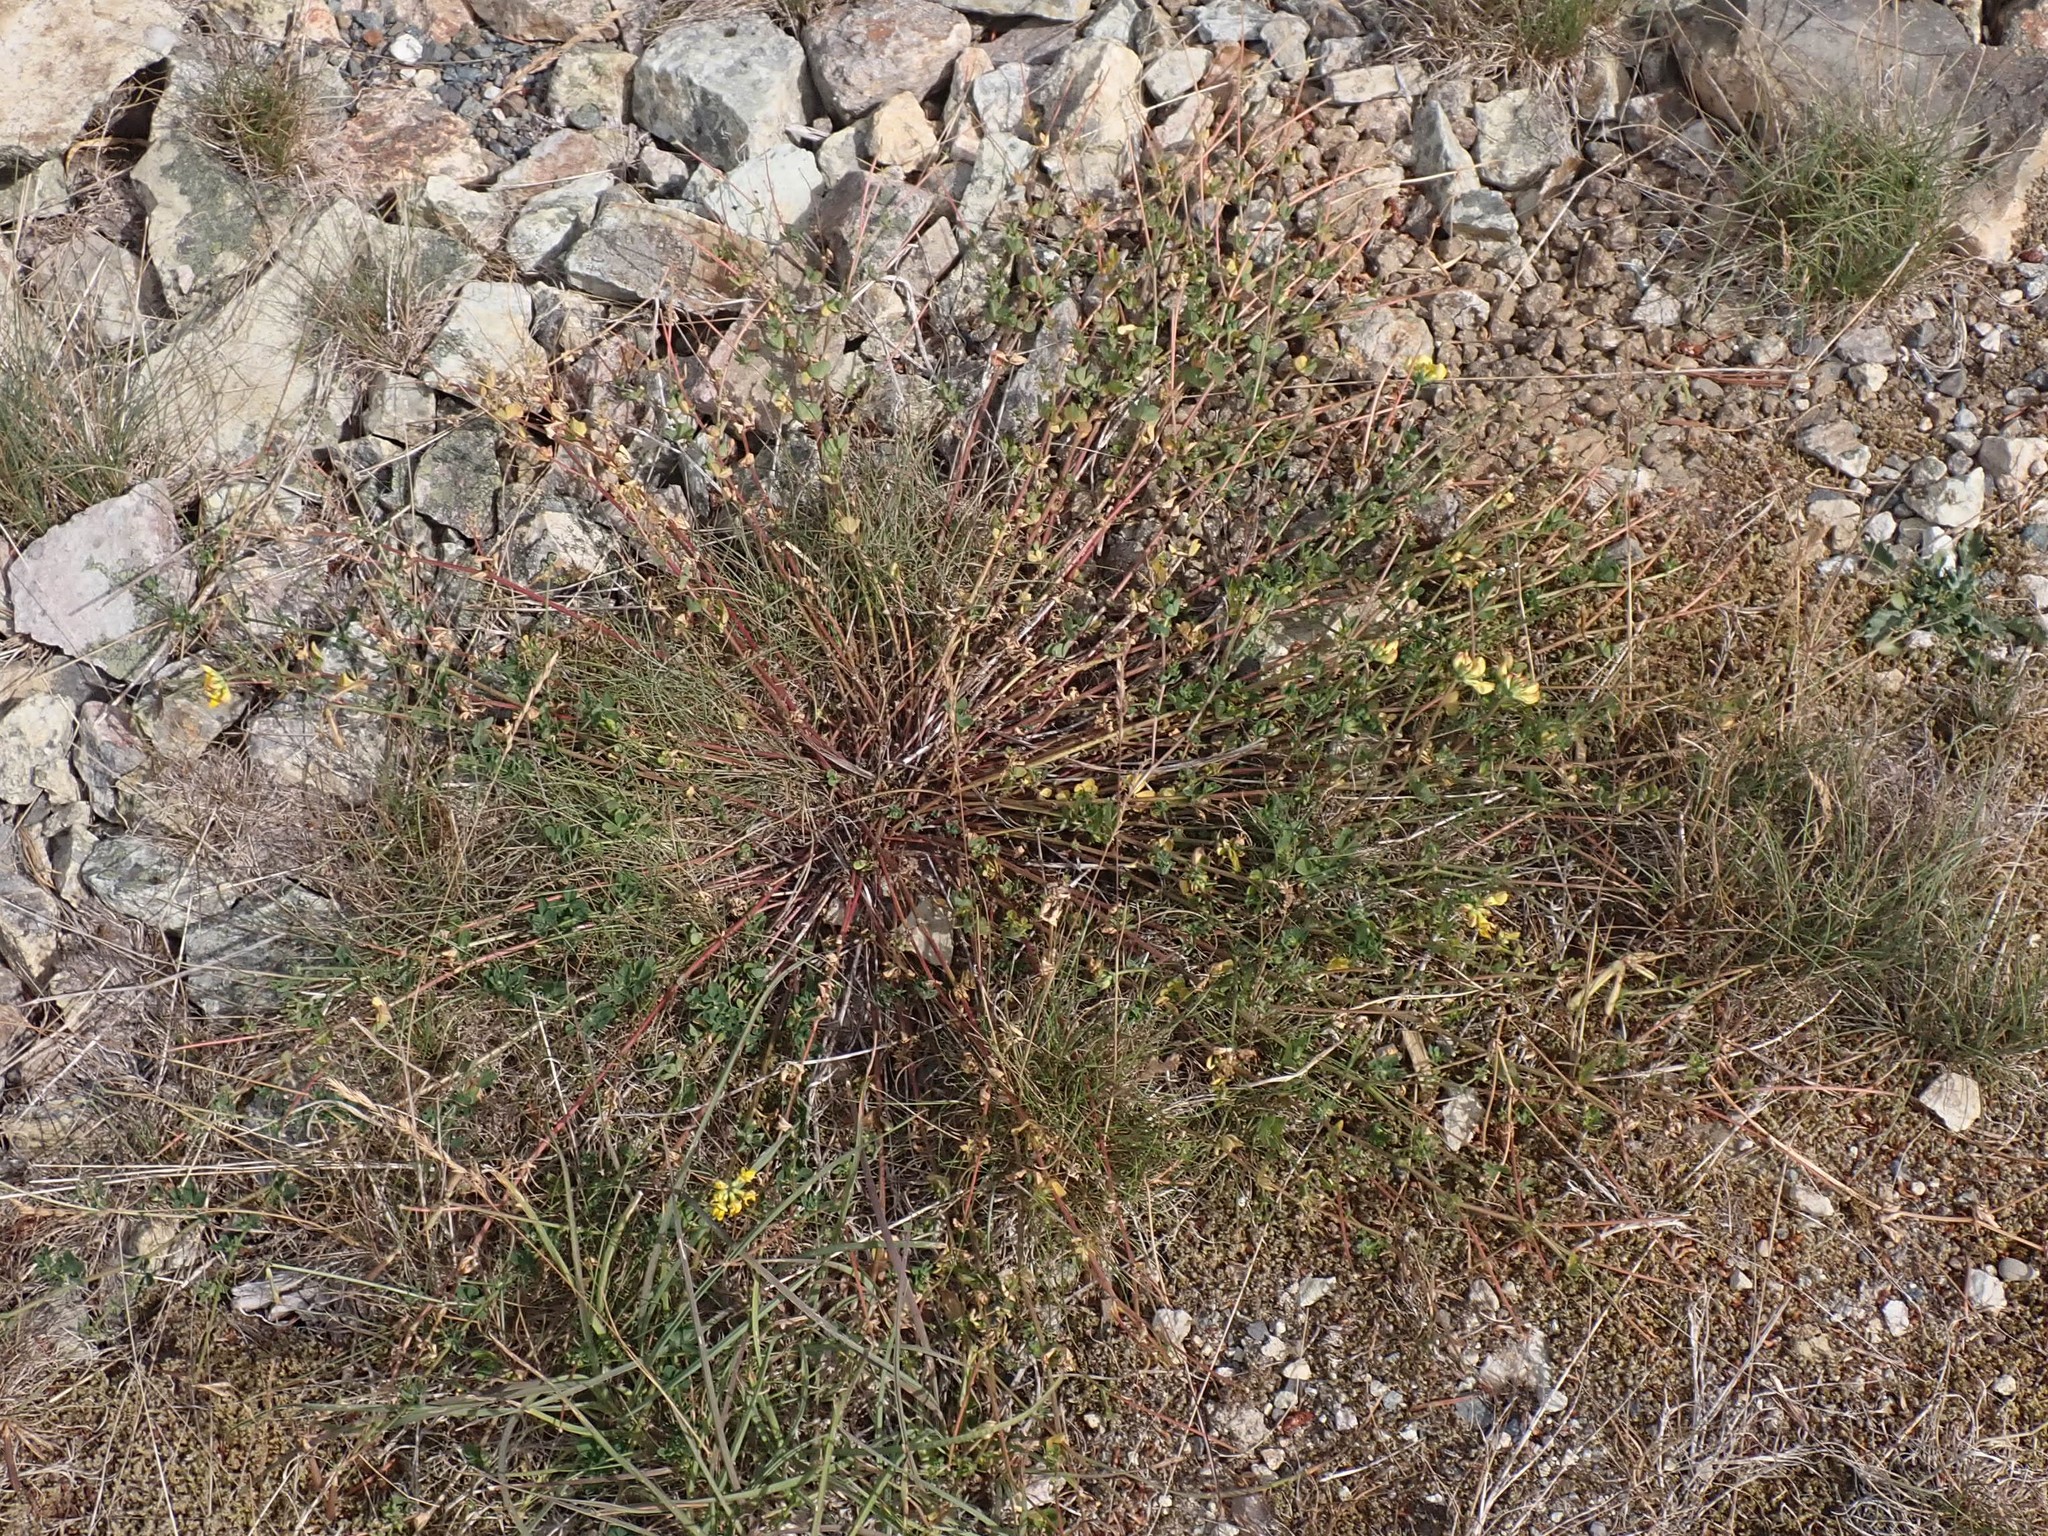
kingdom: Plantae
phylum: Tracheophyta
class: Magnoliopsida
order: Fabales
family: Fabaceae
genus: Lotus
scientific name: Lotus corniculatus
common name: Common bird's-foot-trefoil
